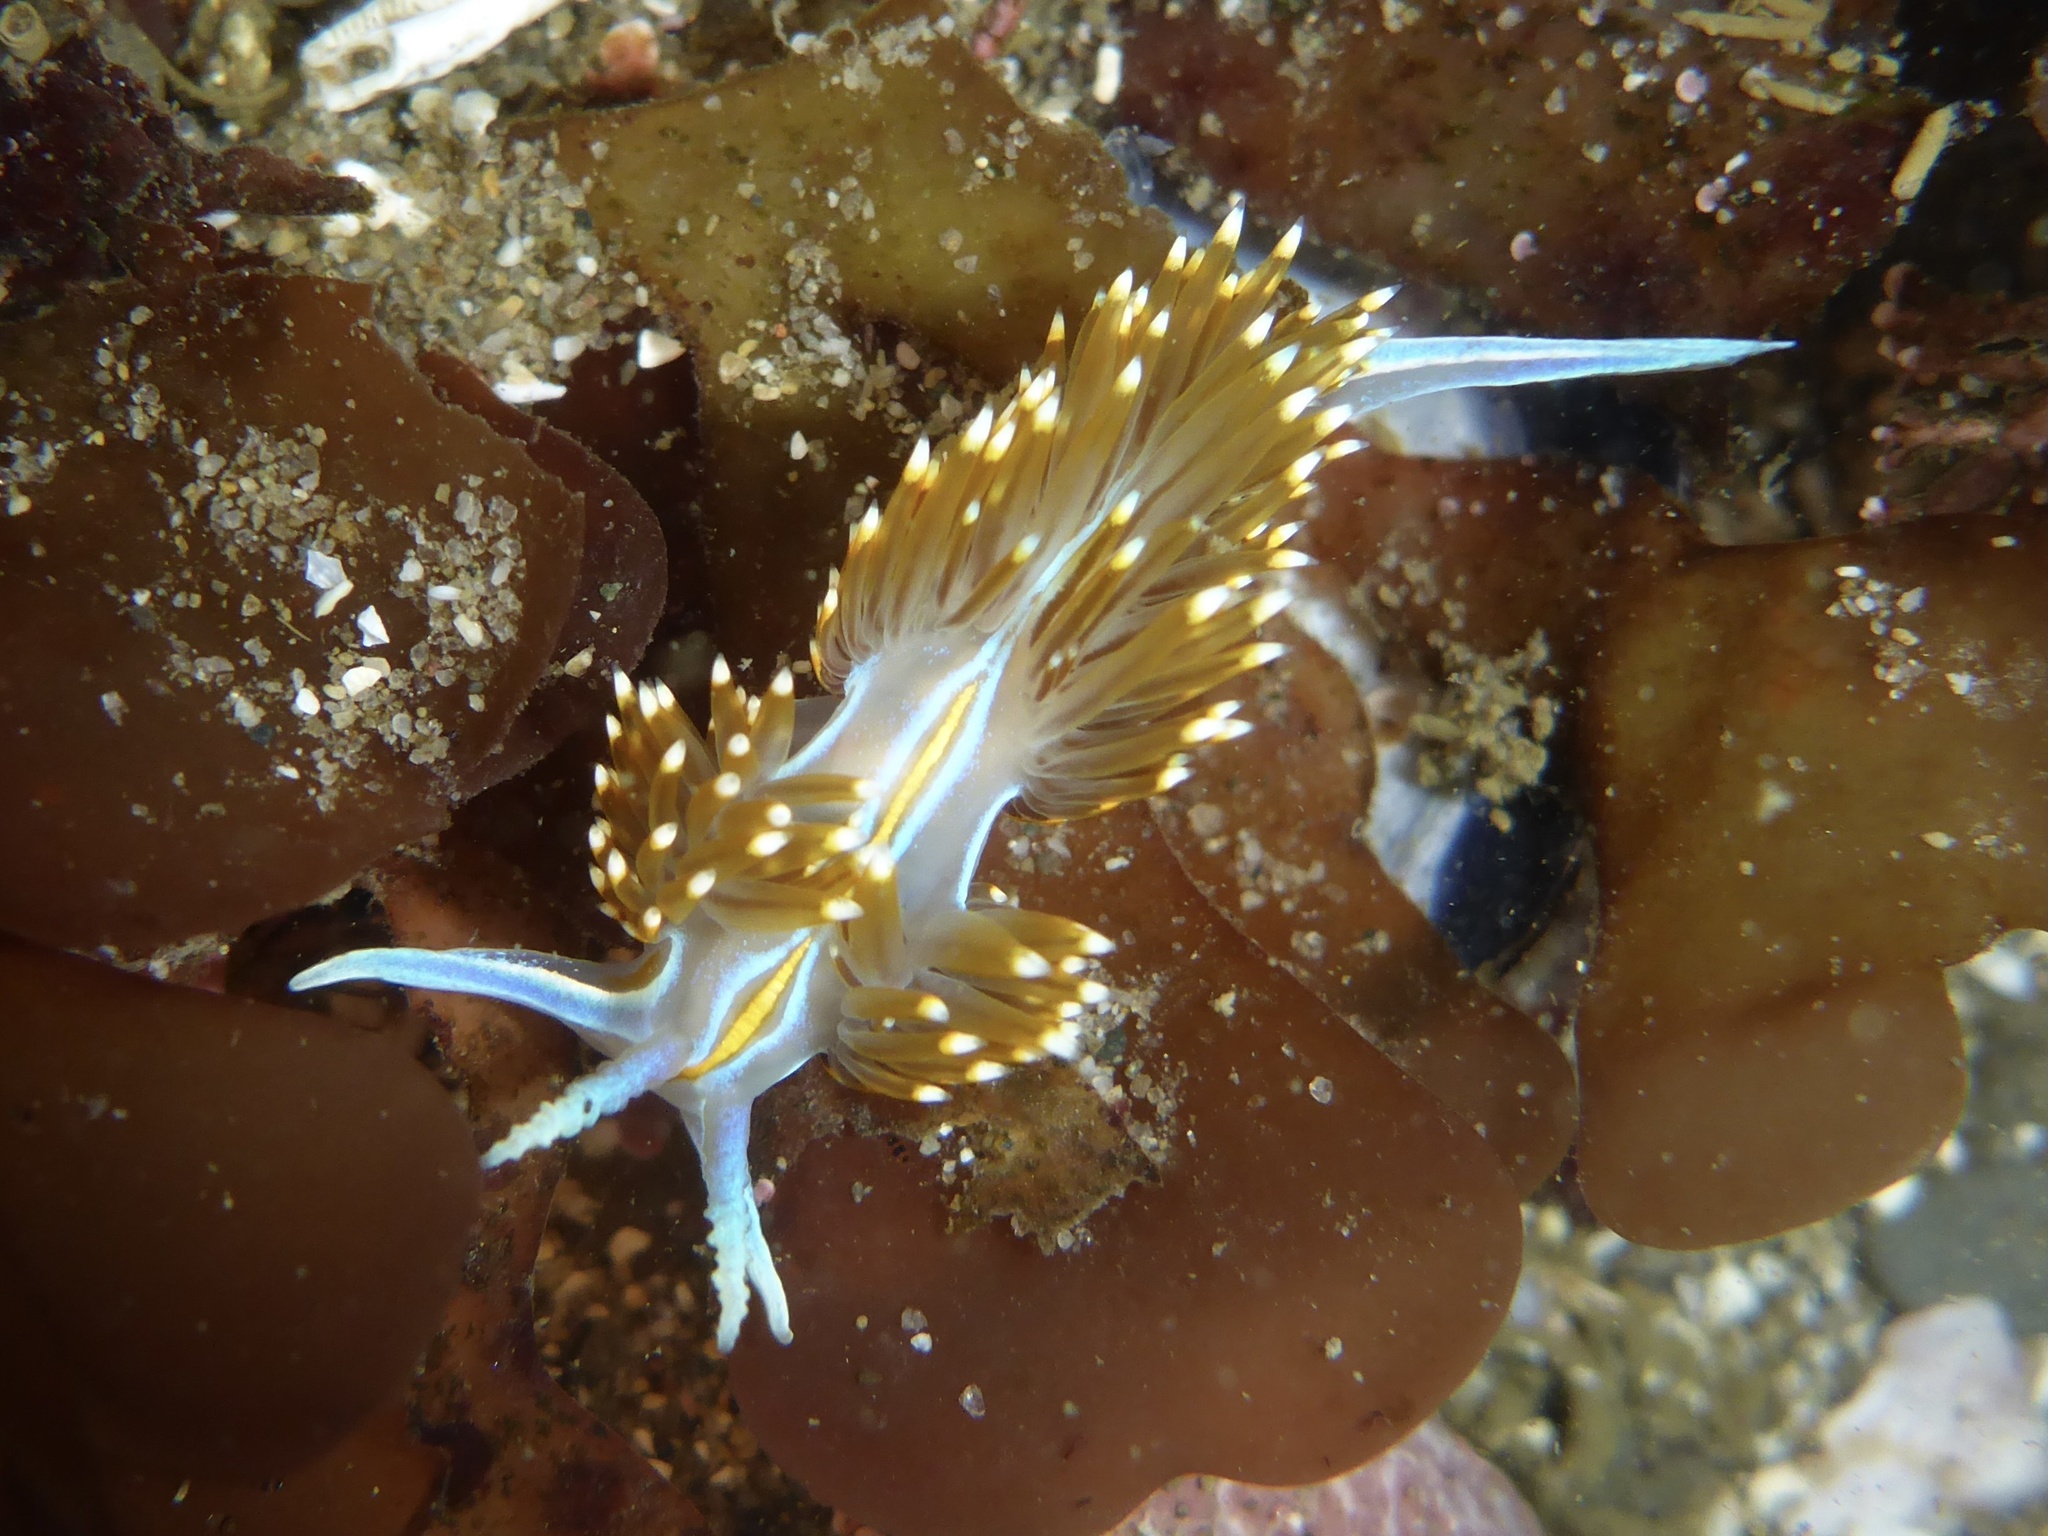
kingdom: Animalia
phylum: Mollusca
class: Gastropoda
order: Nudibranchia
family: Myrrhinidae
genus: Hermissenda
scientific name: Hermissenda opalescens
